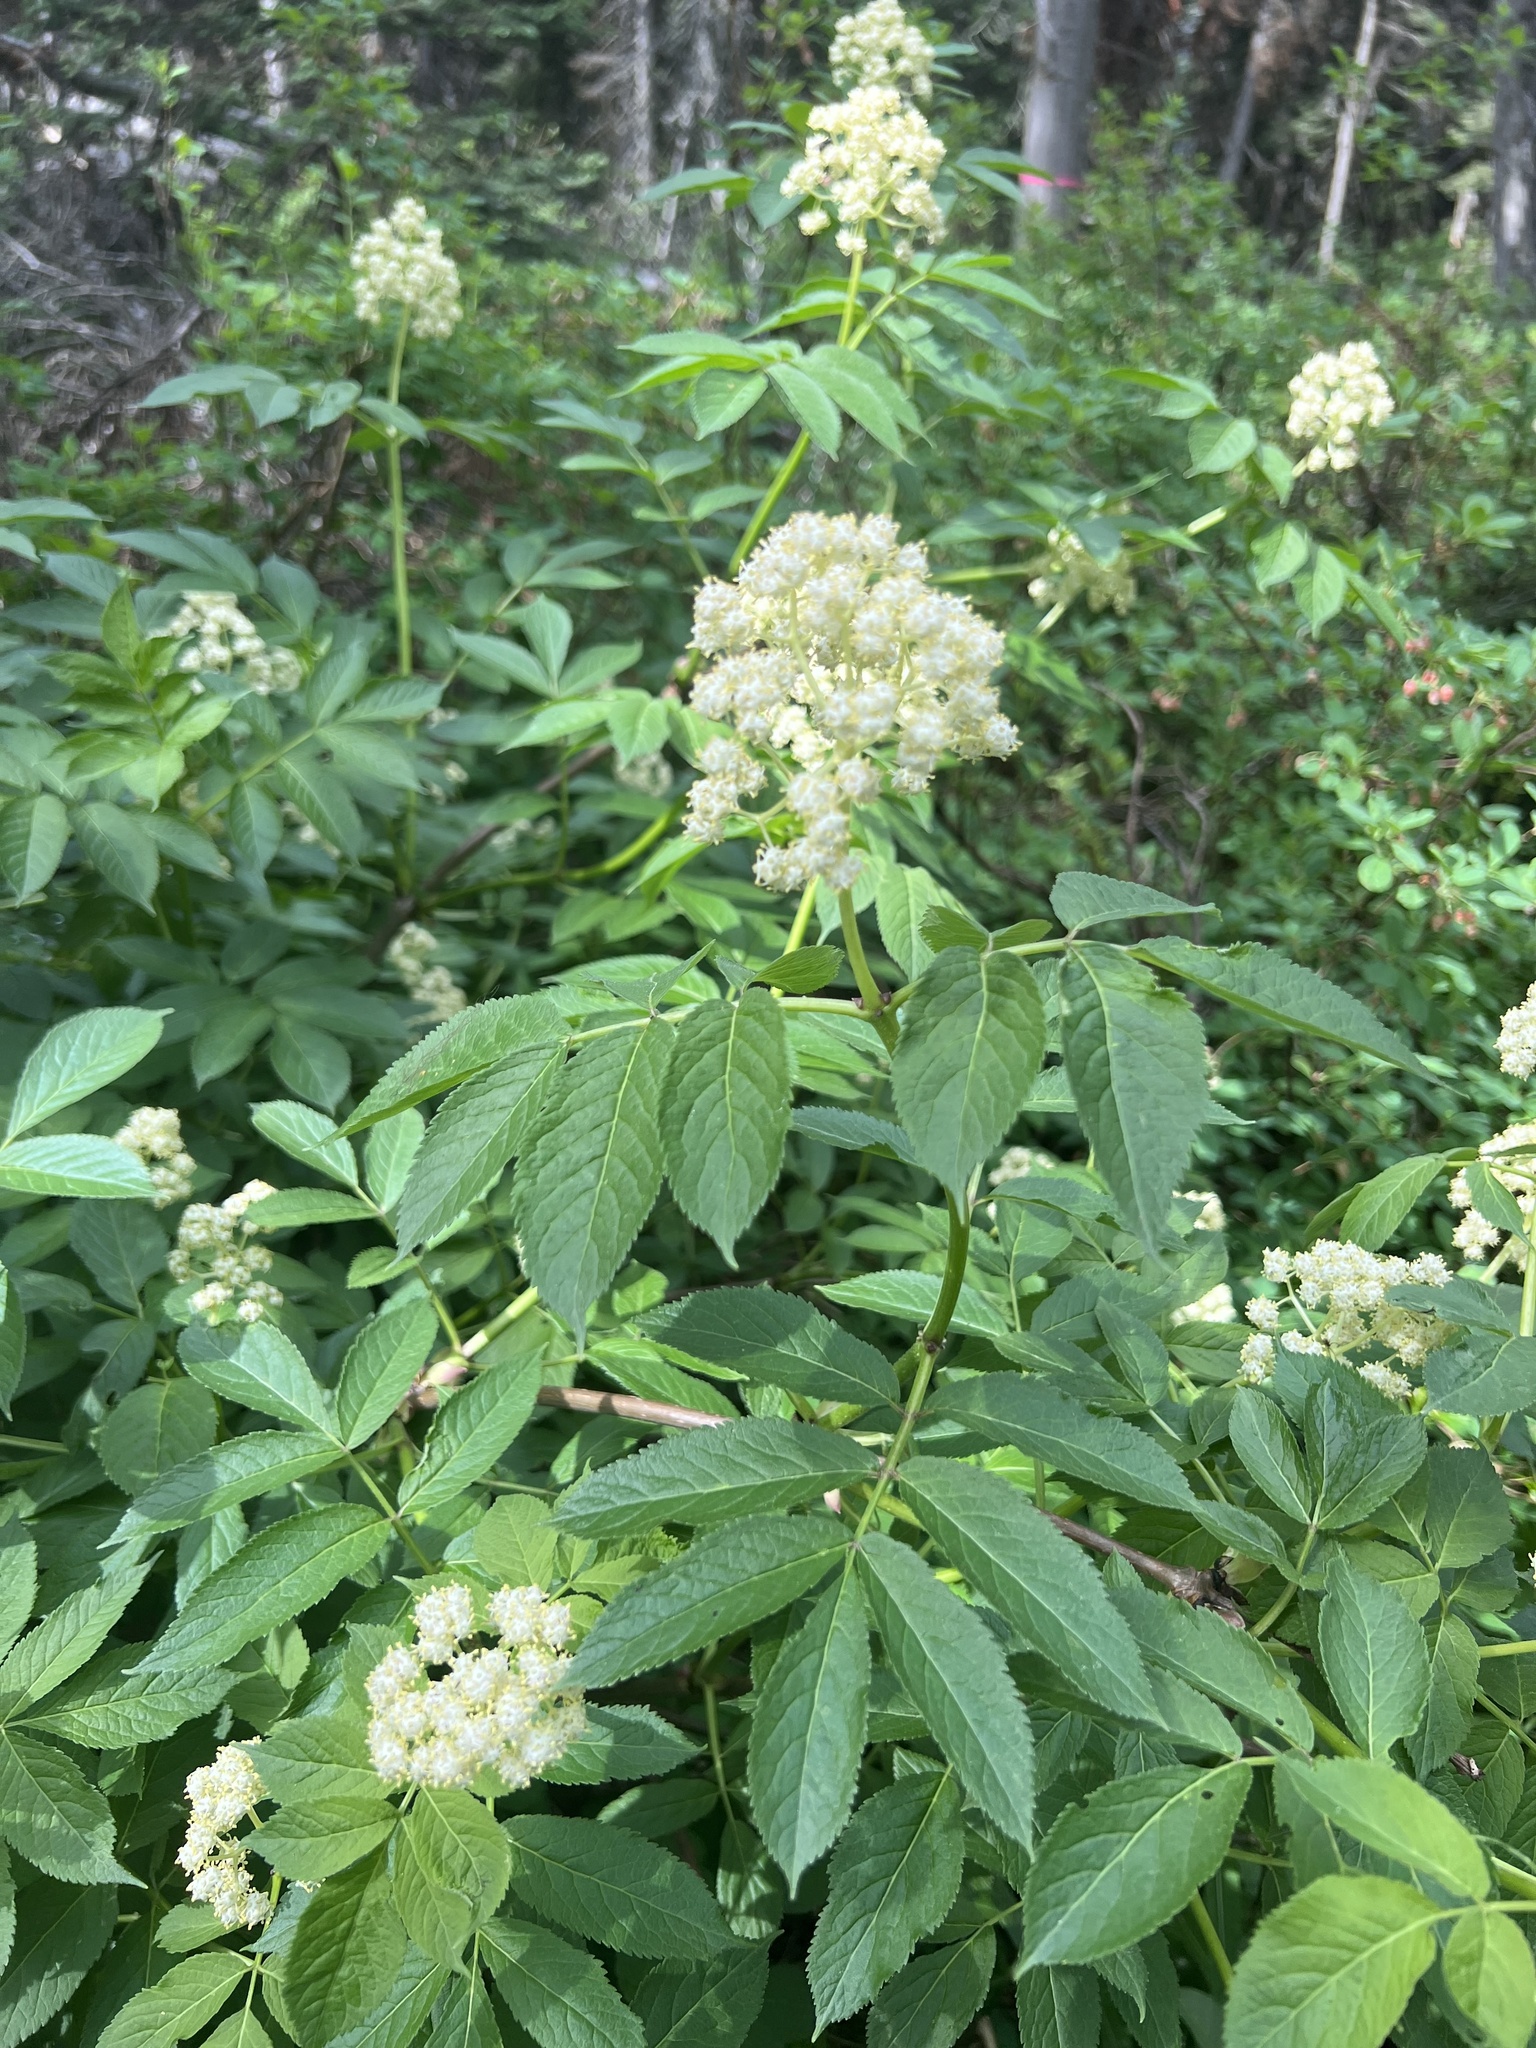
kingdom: Plantae
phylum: Tracheophyta
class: Magnoliopsida
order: Dipsacales
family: Viburnaceae
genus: Sambucus
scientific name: Sambucus racemosa
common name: Red-berried elder
